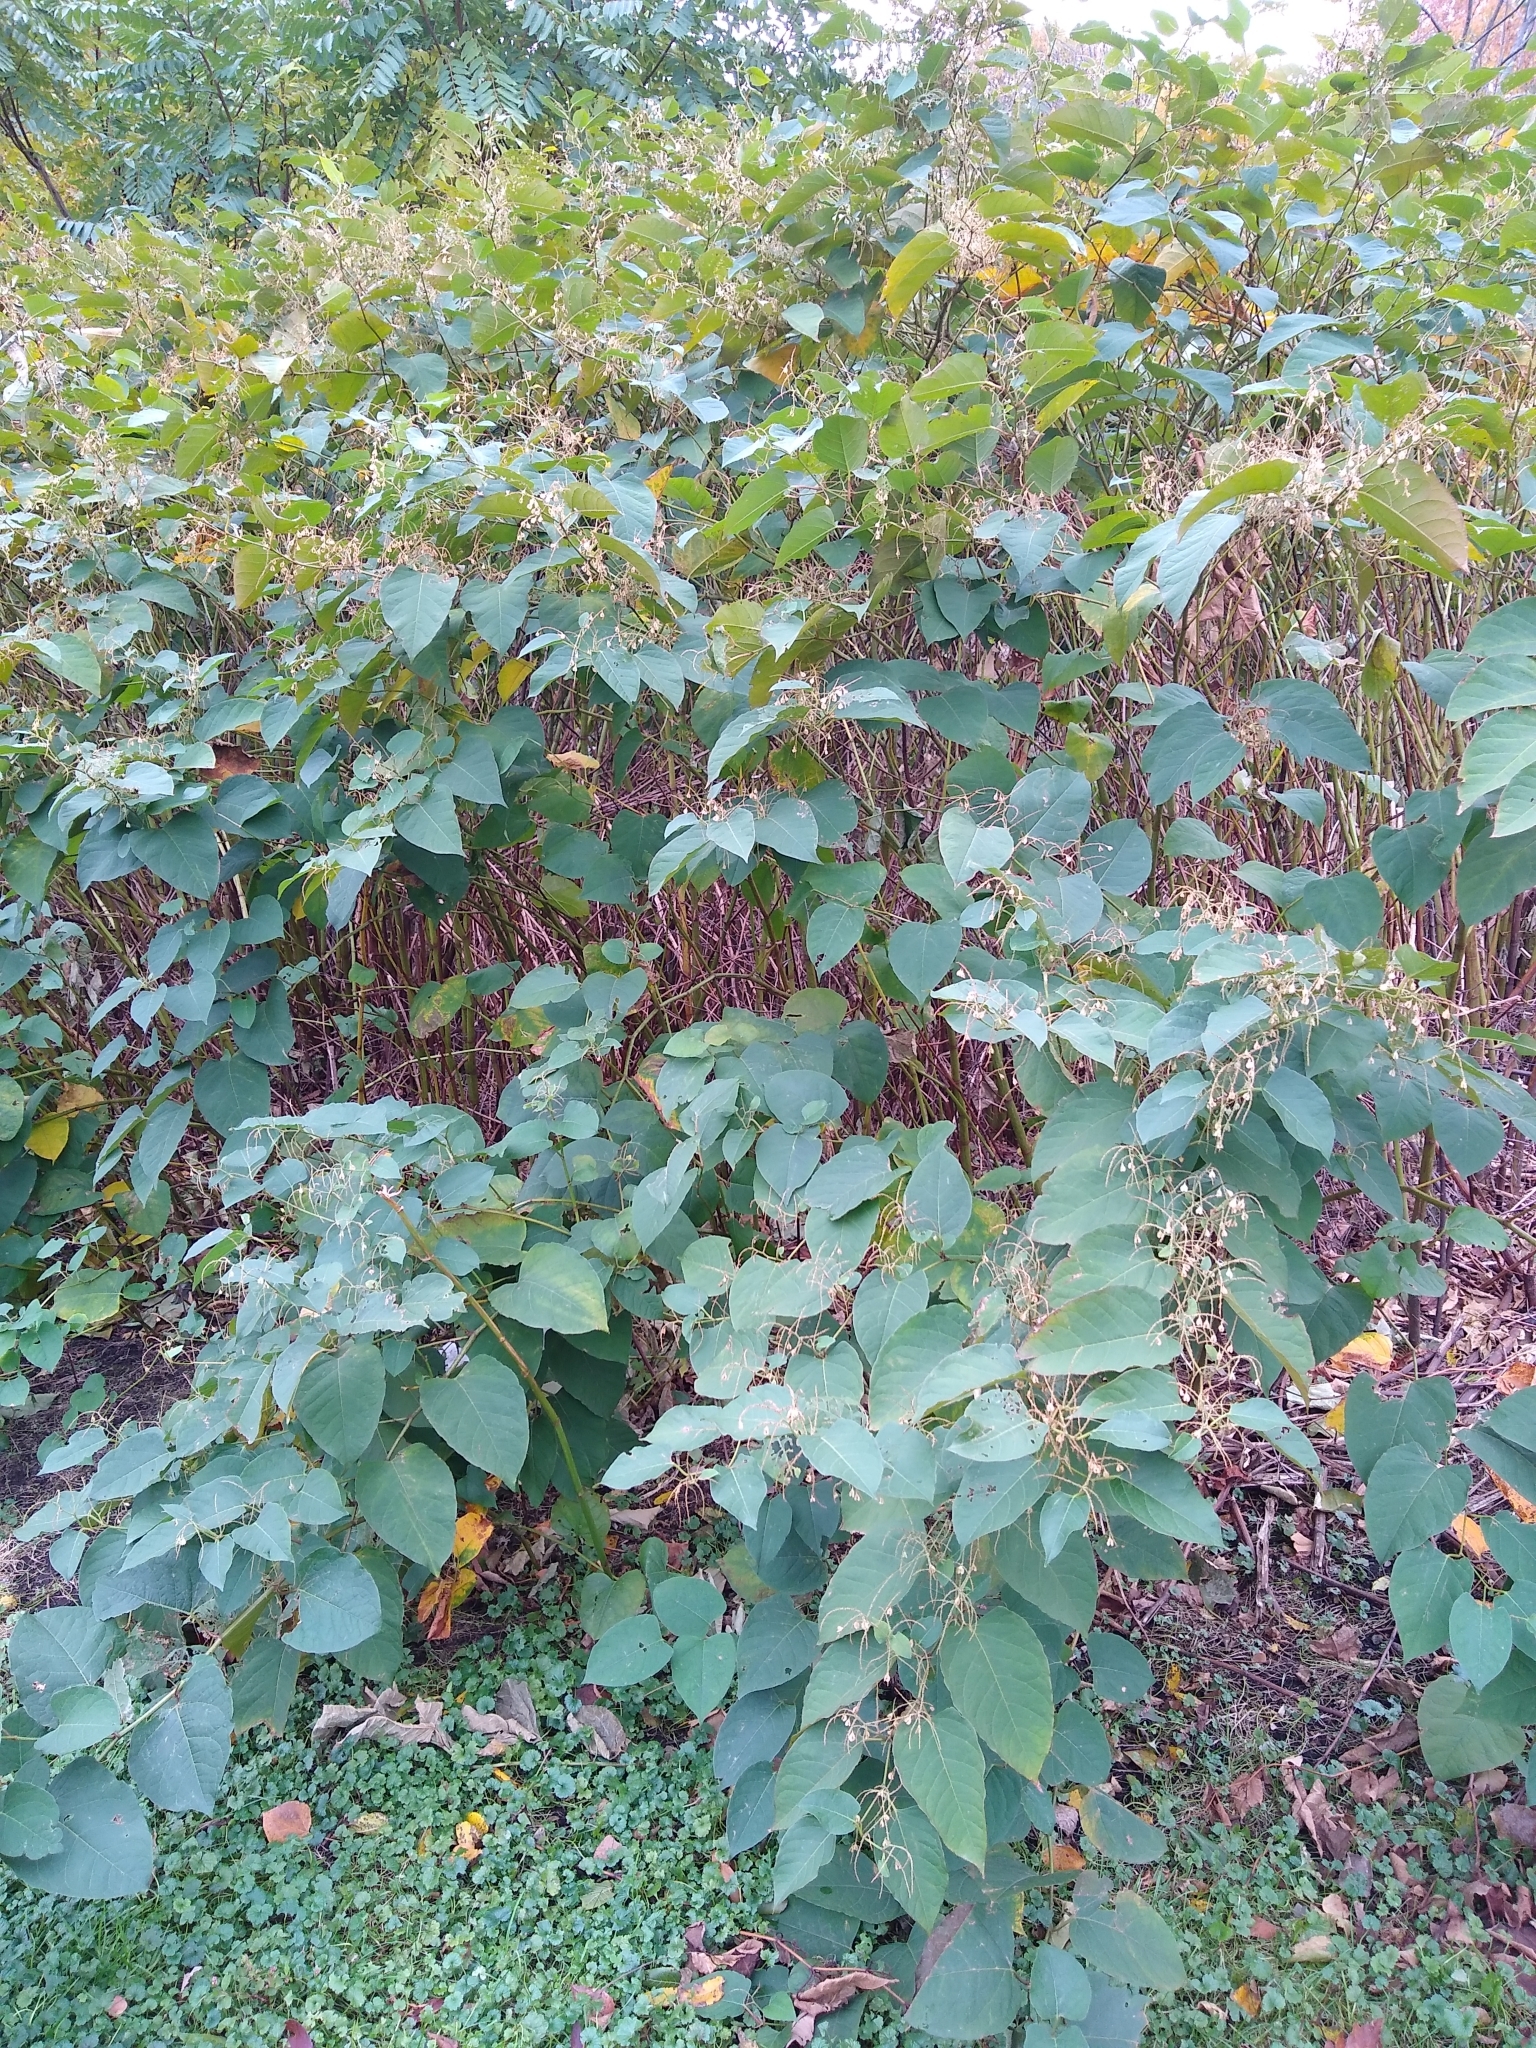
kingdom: Plantae
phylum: Tracheophyta
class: Magnoliopsida
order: Caryophyllales
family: Polygonaceae
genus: Reynoutria
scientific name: Reynoutria japonica
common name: Japanese knotweed
